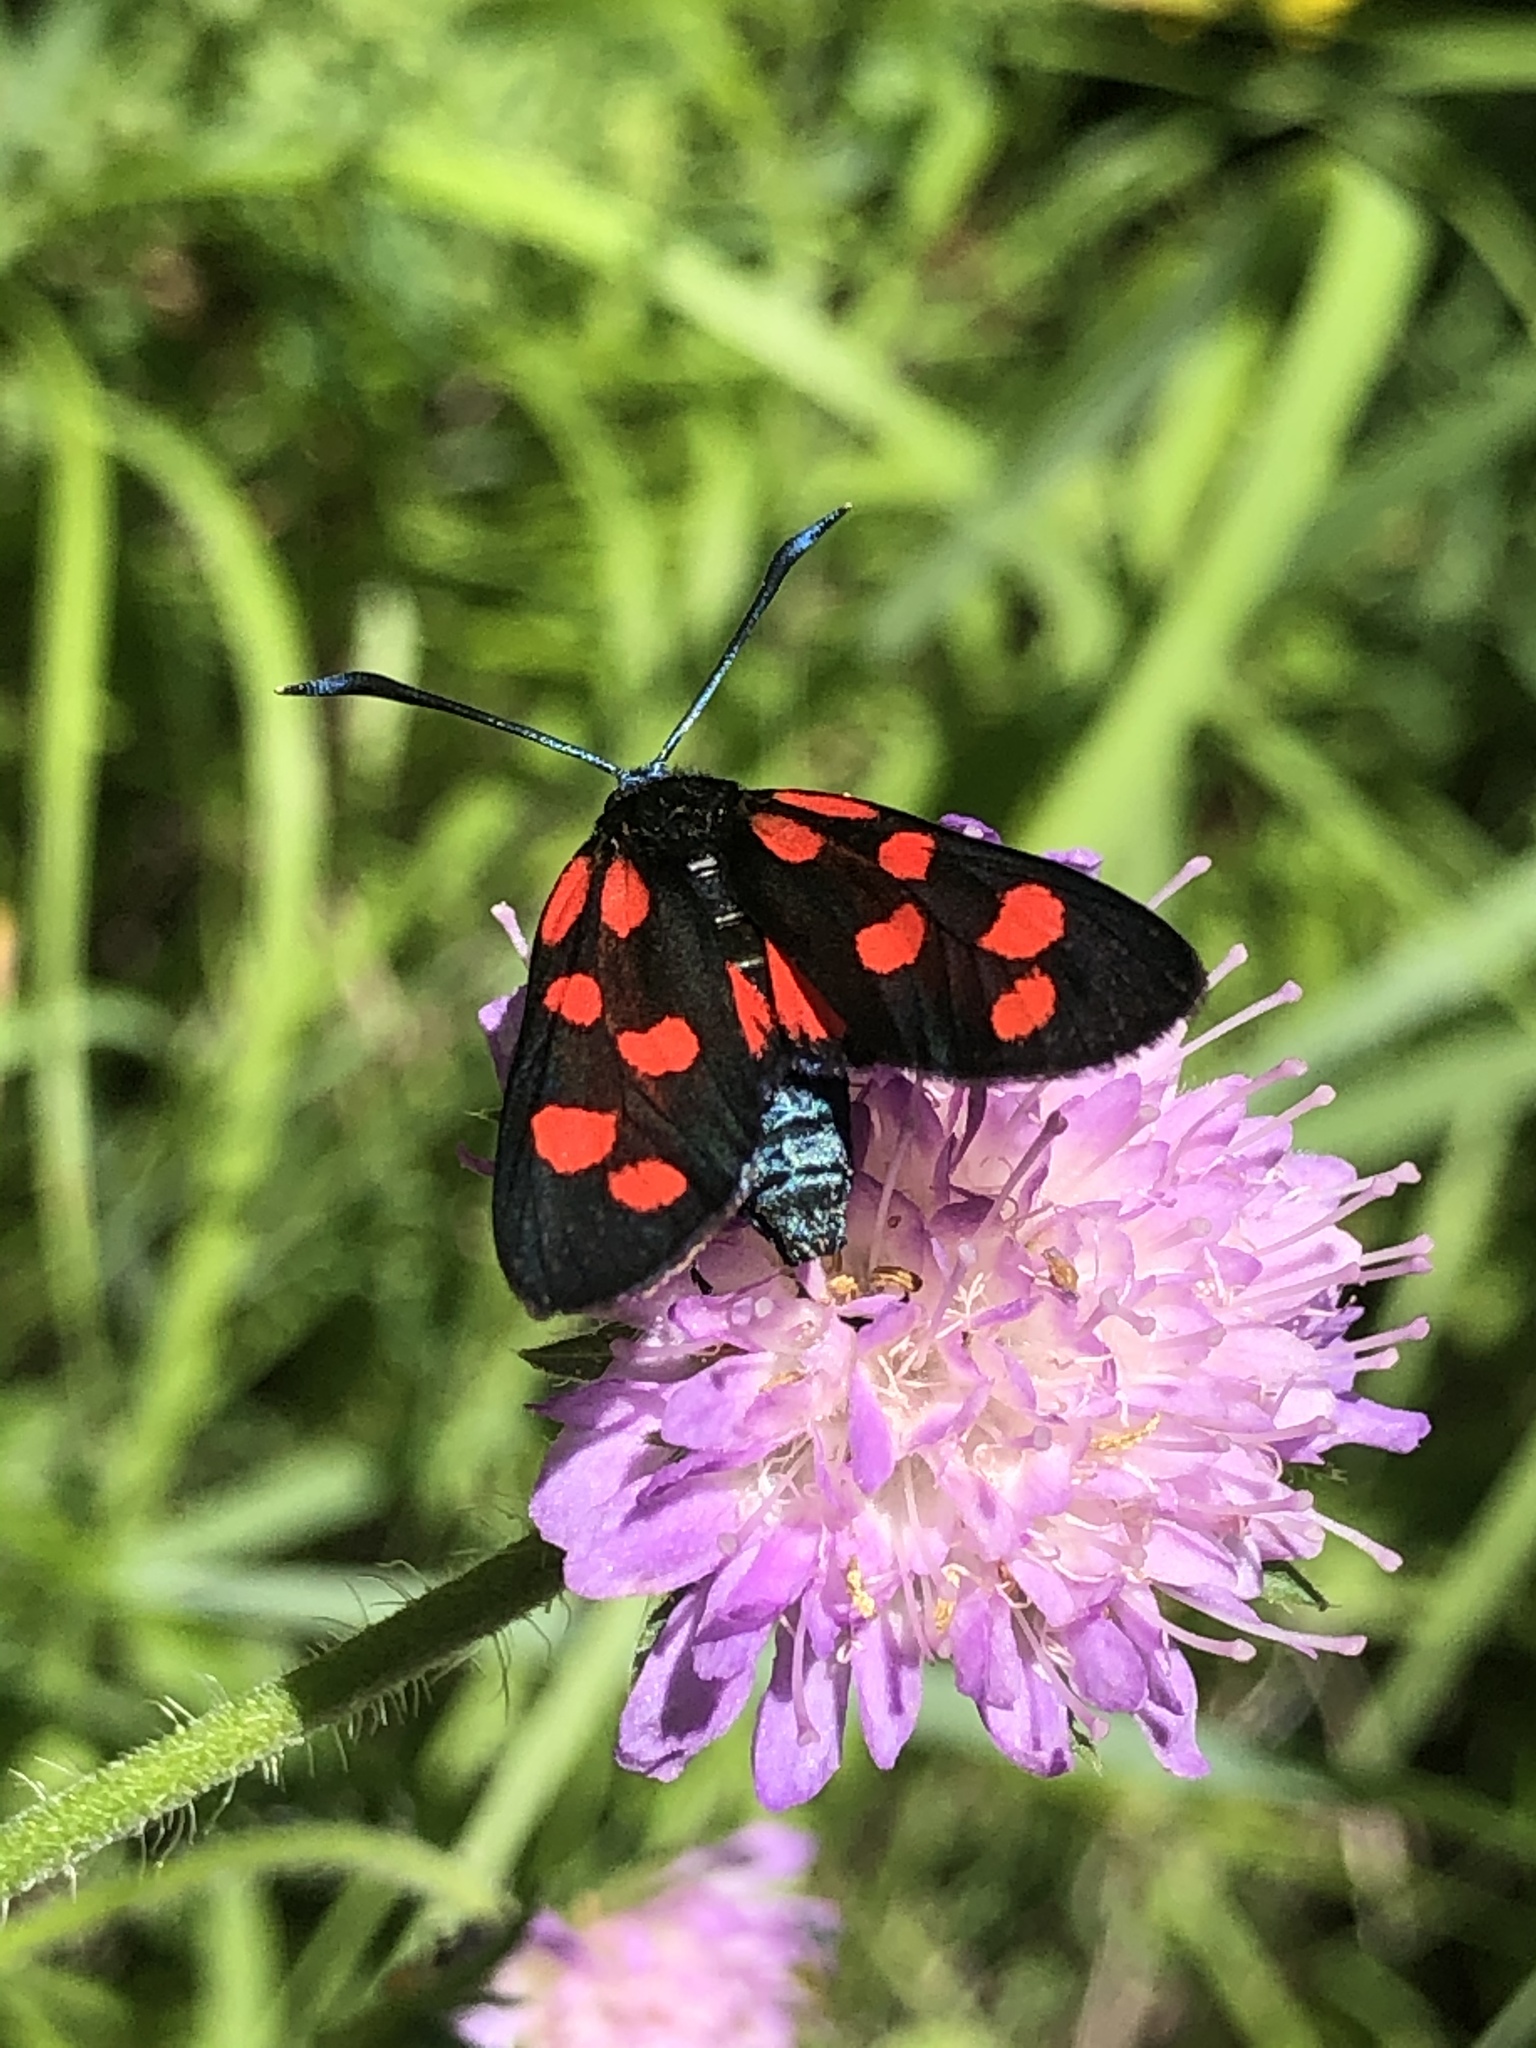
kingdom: Animalia
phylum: Arthropoda
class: Insecta
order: Lepidoptera
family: Zygaenidae
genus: Zygaena
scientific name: Zygaena transalpina
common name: Southern six spot burnet
